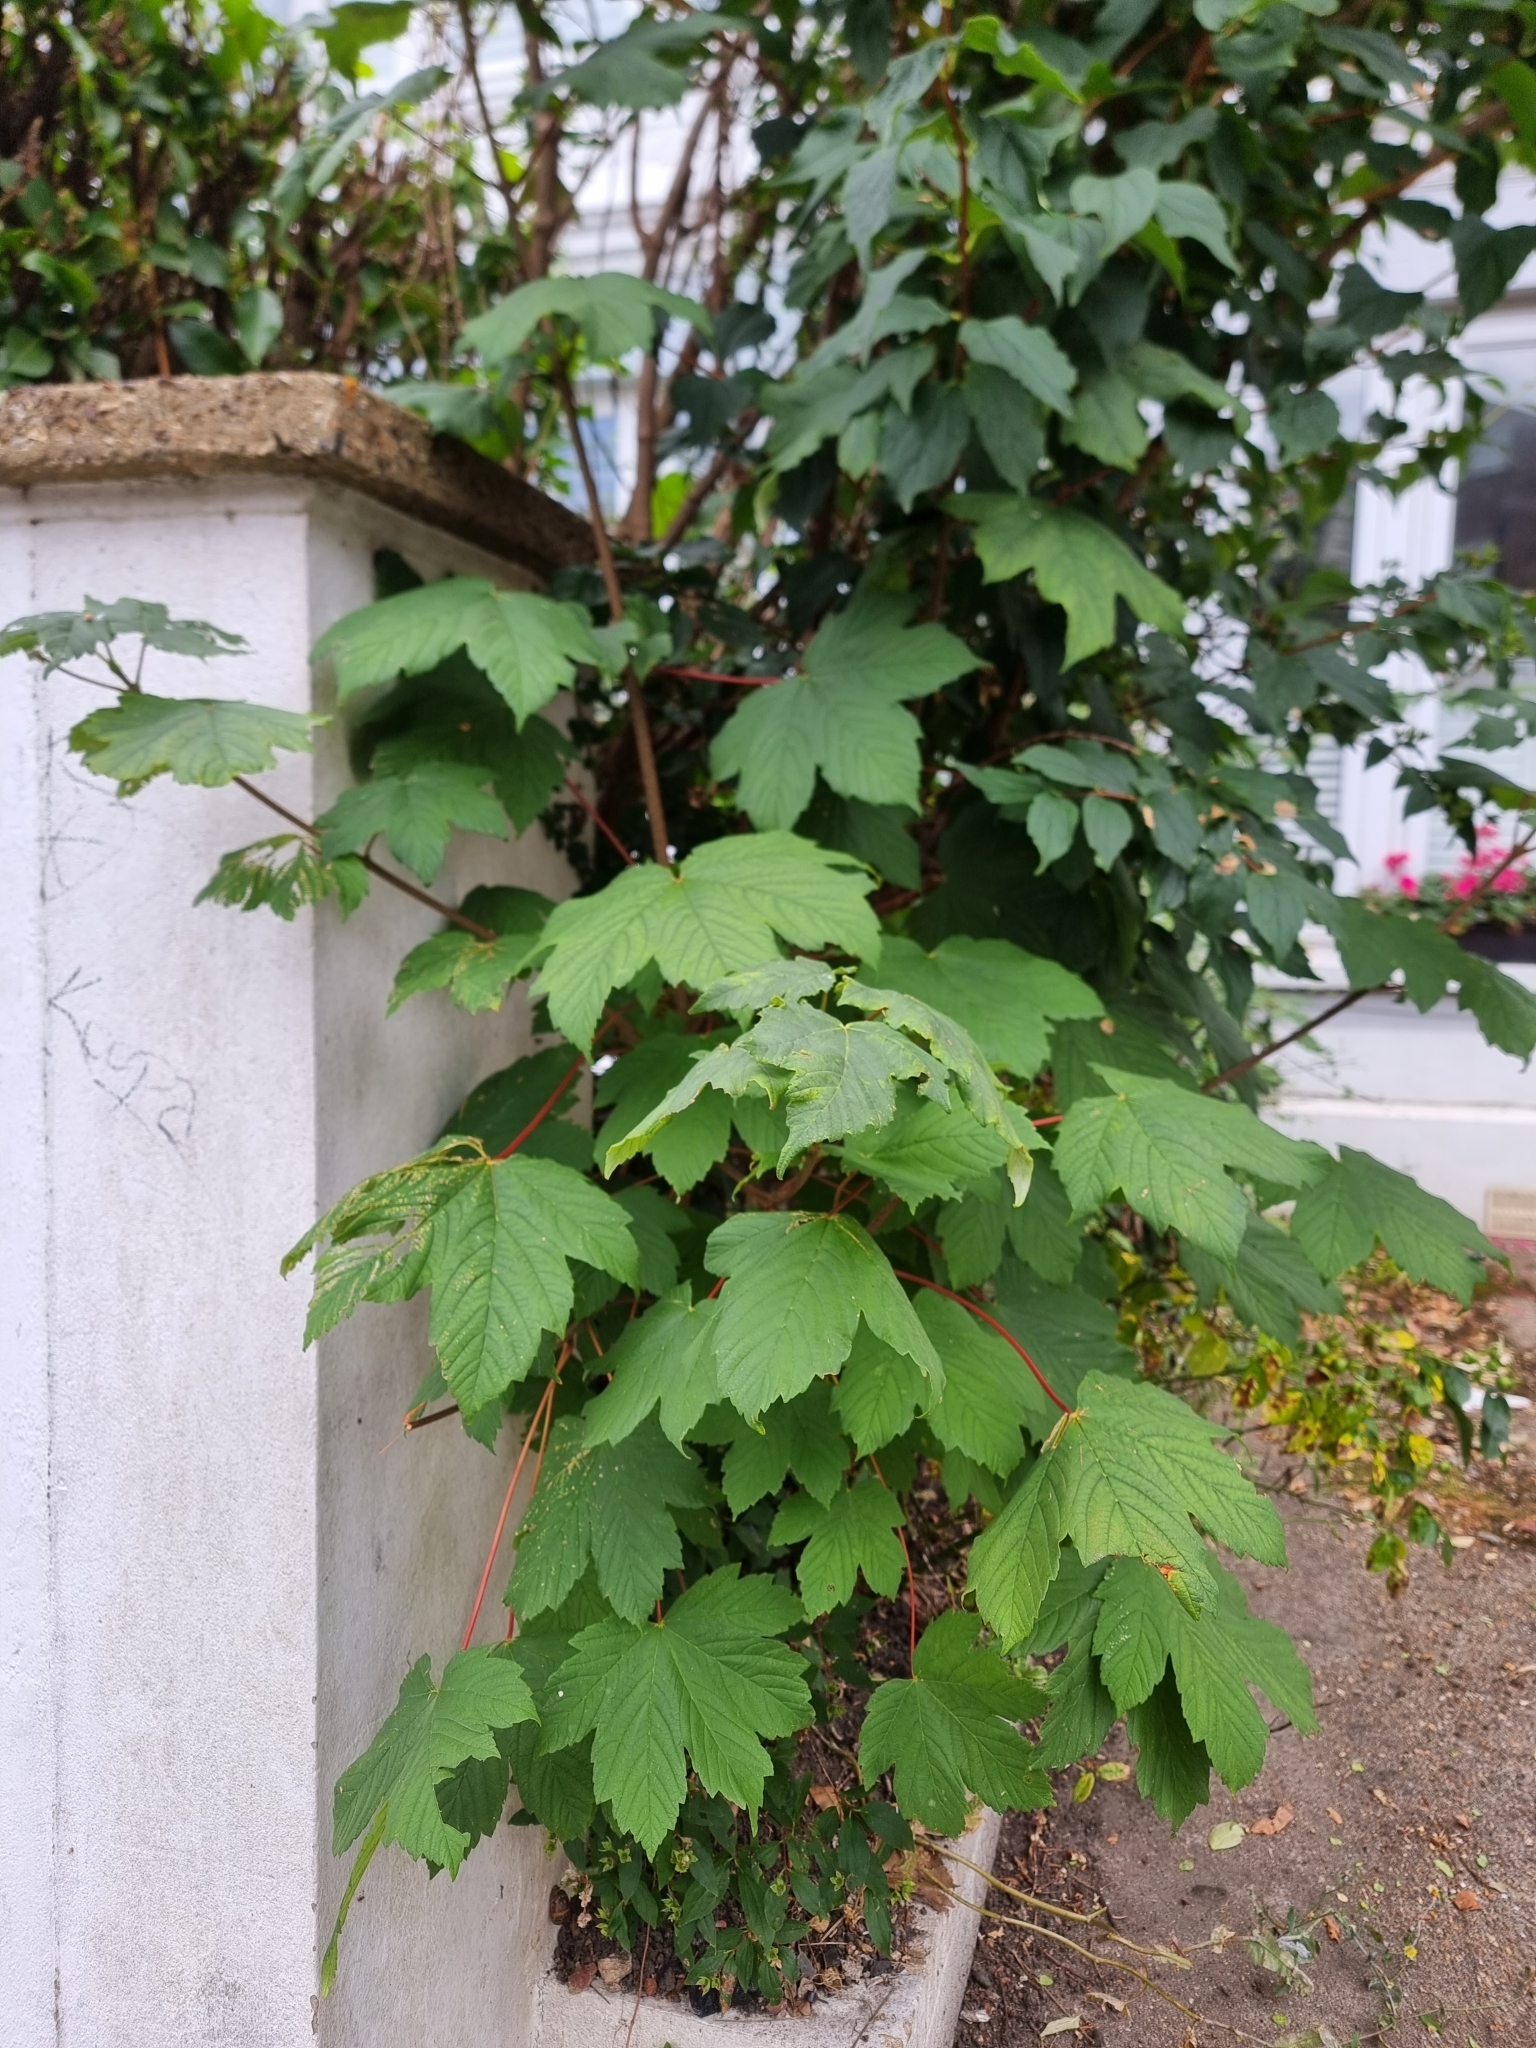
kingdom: Plantae
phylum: Tracheophyta
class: Magnoliopsida
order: Sapindales
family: Sapindaceae
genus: Acer
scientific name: Acer pseudoplatanus
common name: Sycamore
